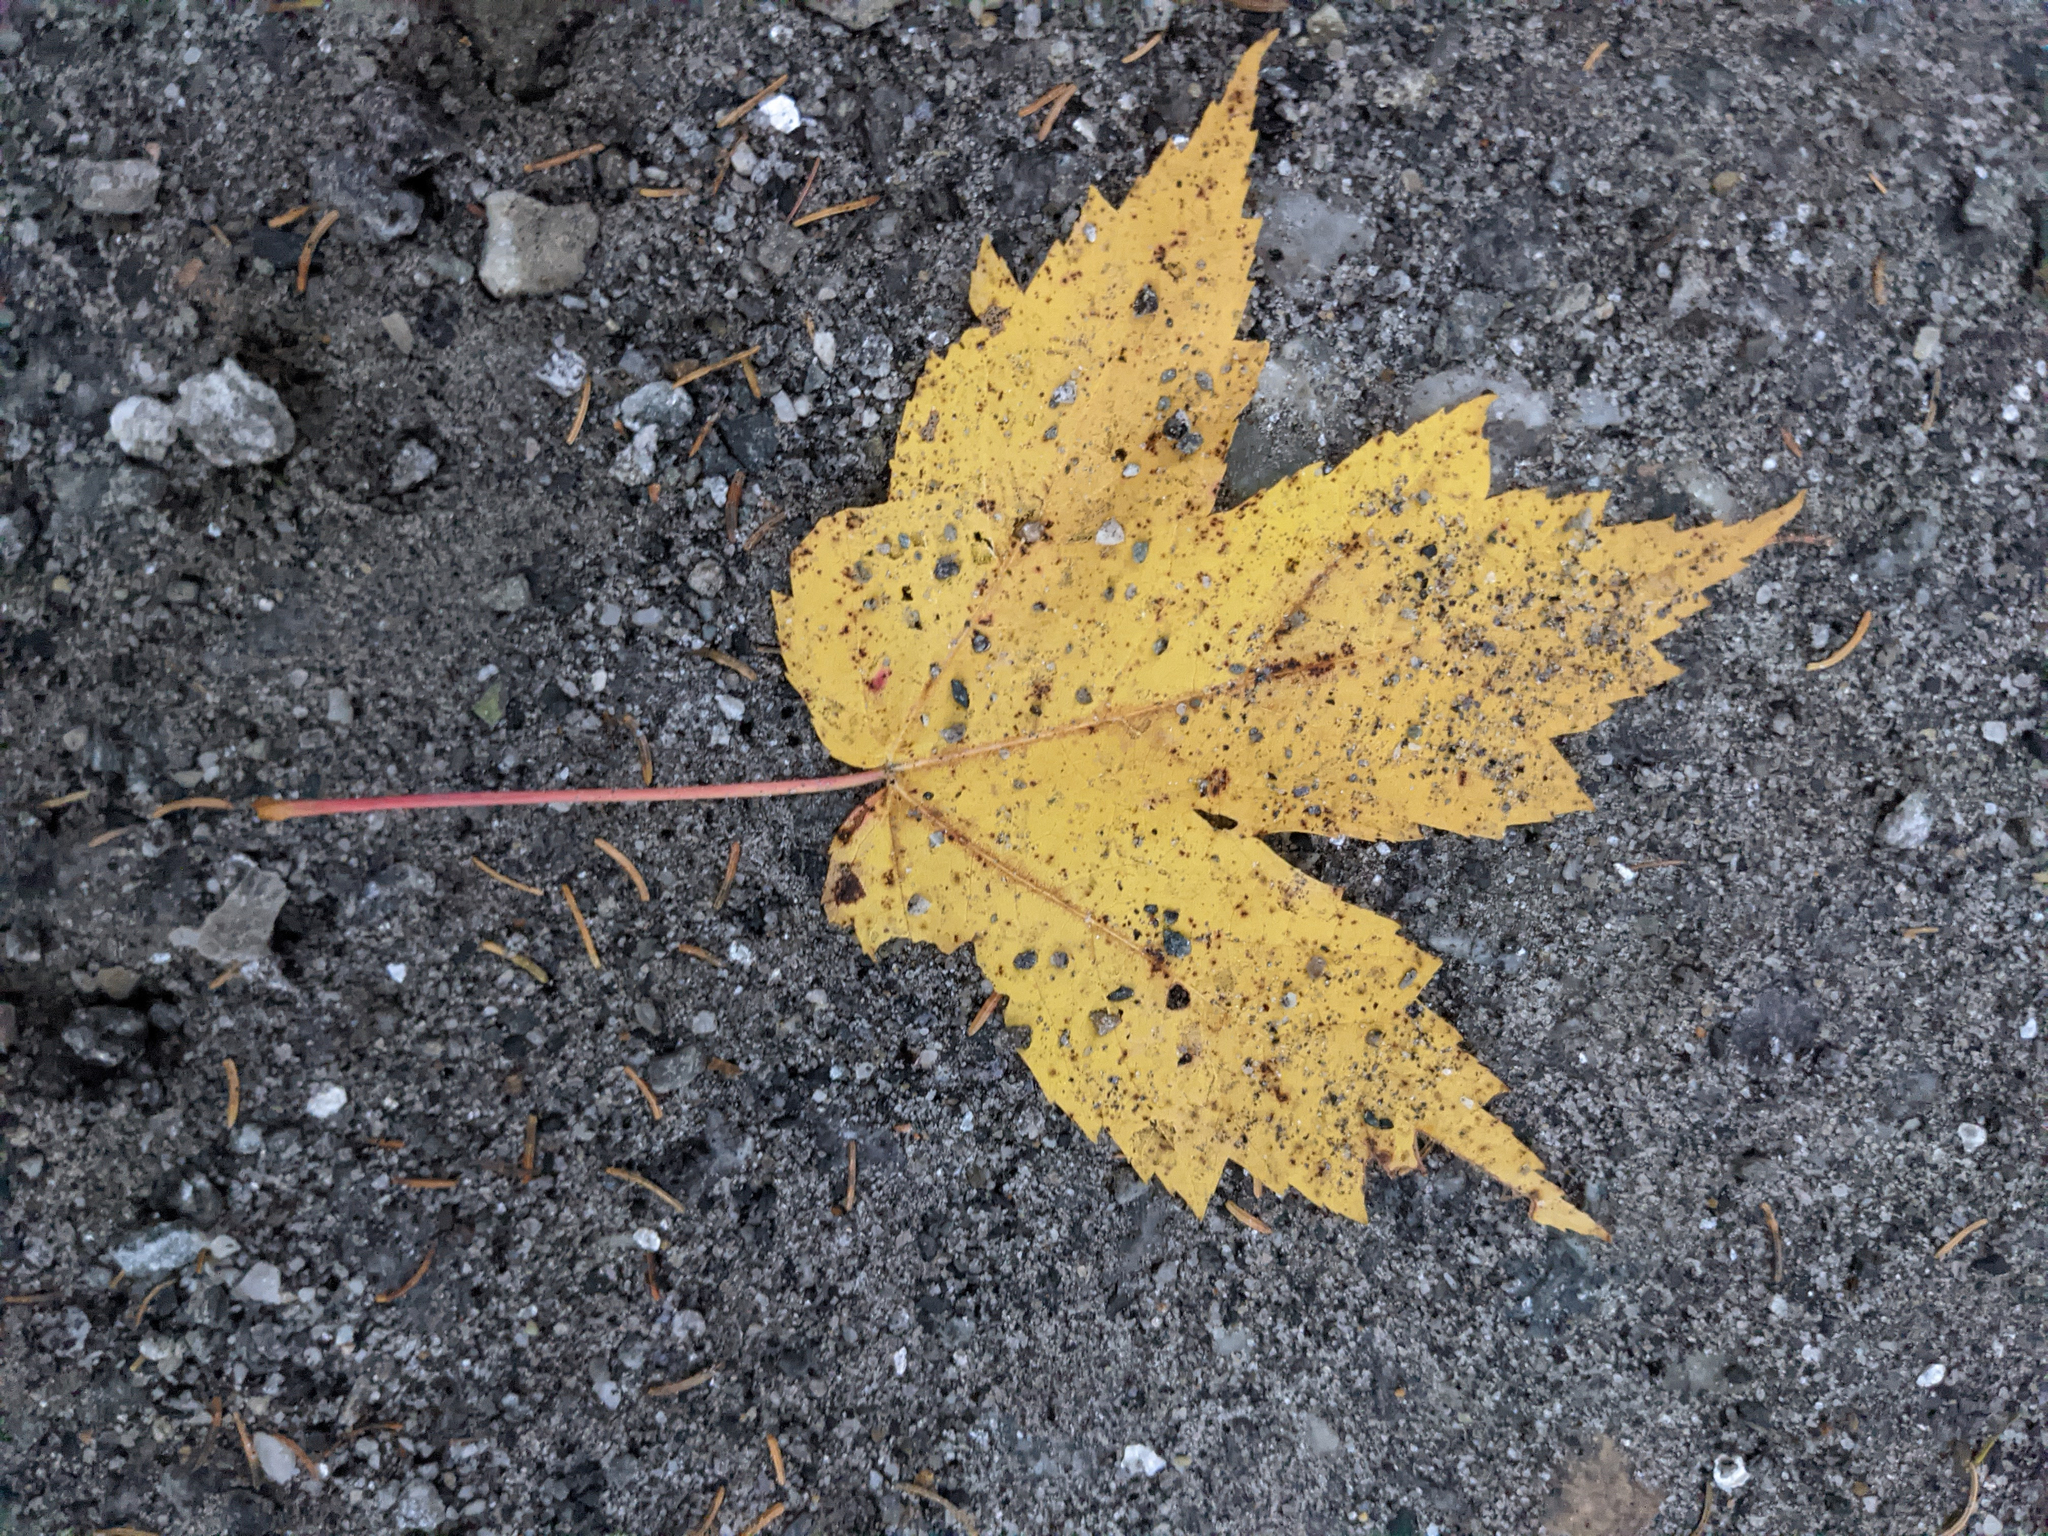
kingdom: Plantae
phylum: Tracheophyta
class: Magnoliopsida
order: Sapindales
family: Sapindaceae
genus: Acer
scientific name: Acer rubrum
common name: Red maple
